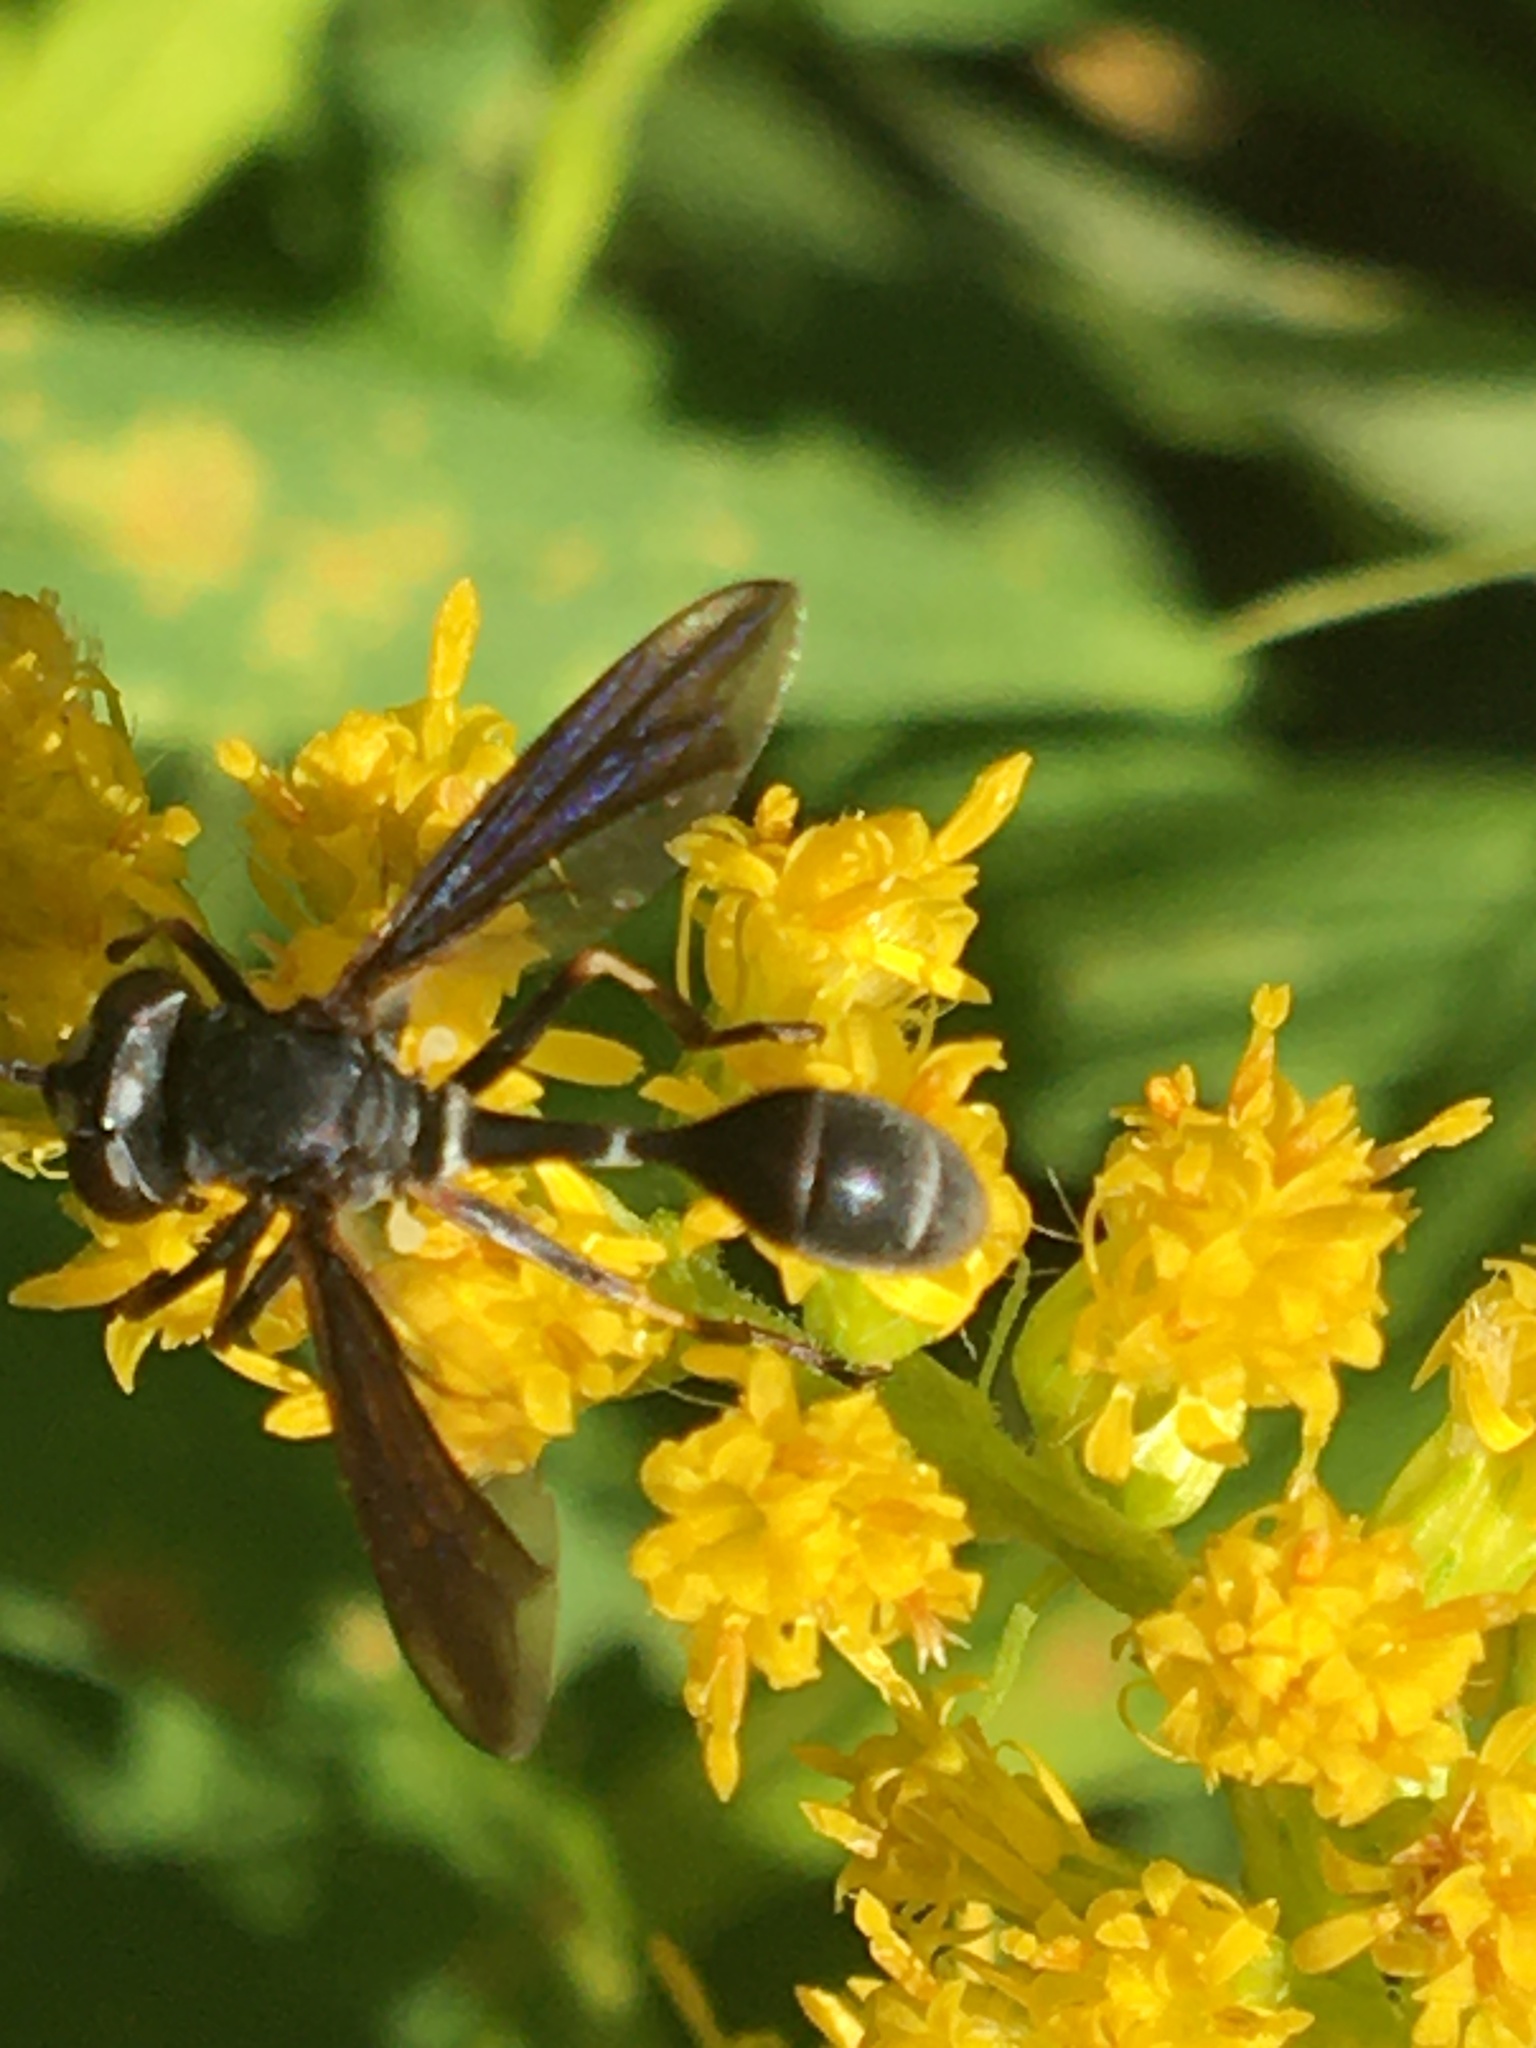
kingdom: Animalia
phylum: Arthropoda
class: Insecta
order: Diptera
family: Conopidae
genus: Physocephala
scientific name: Physocephala tibialis
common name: Common eastern physocephala
